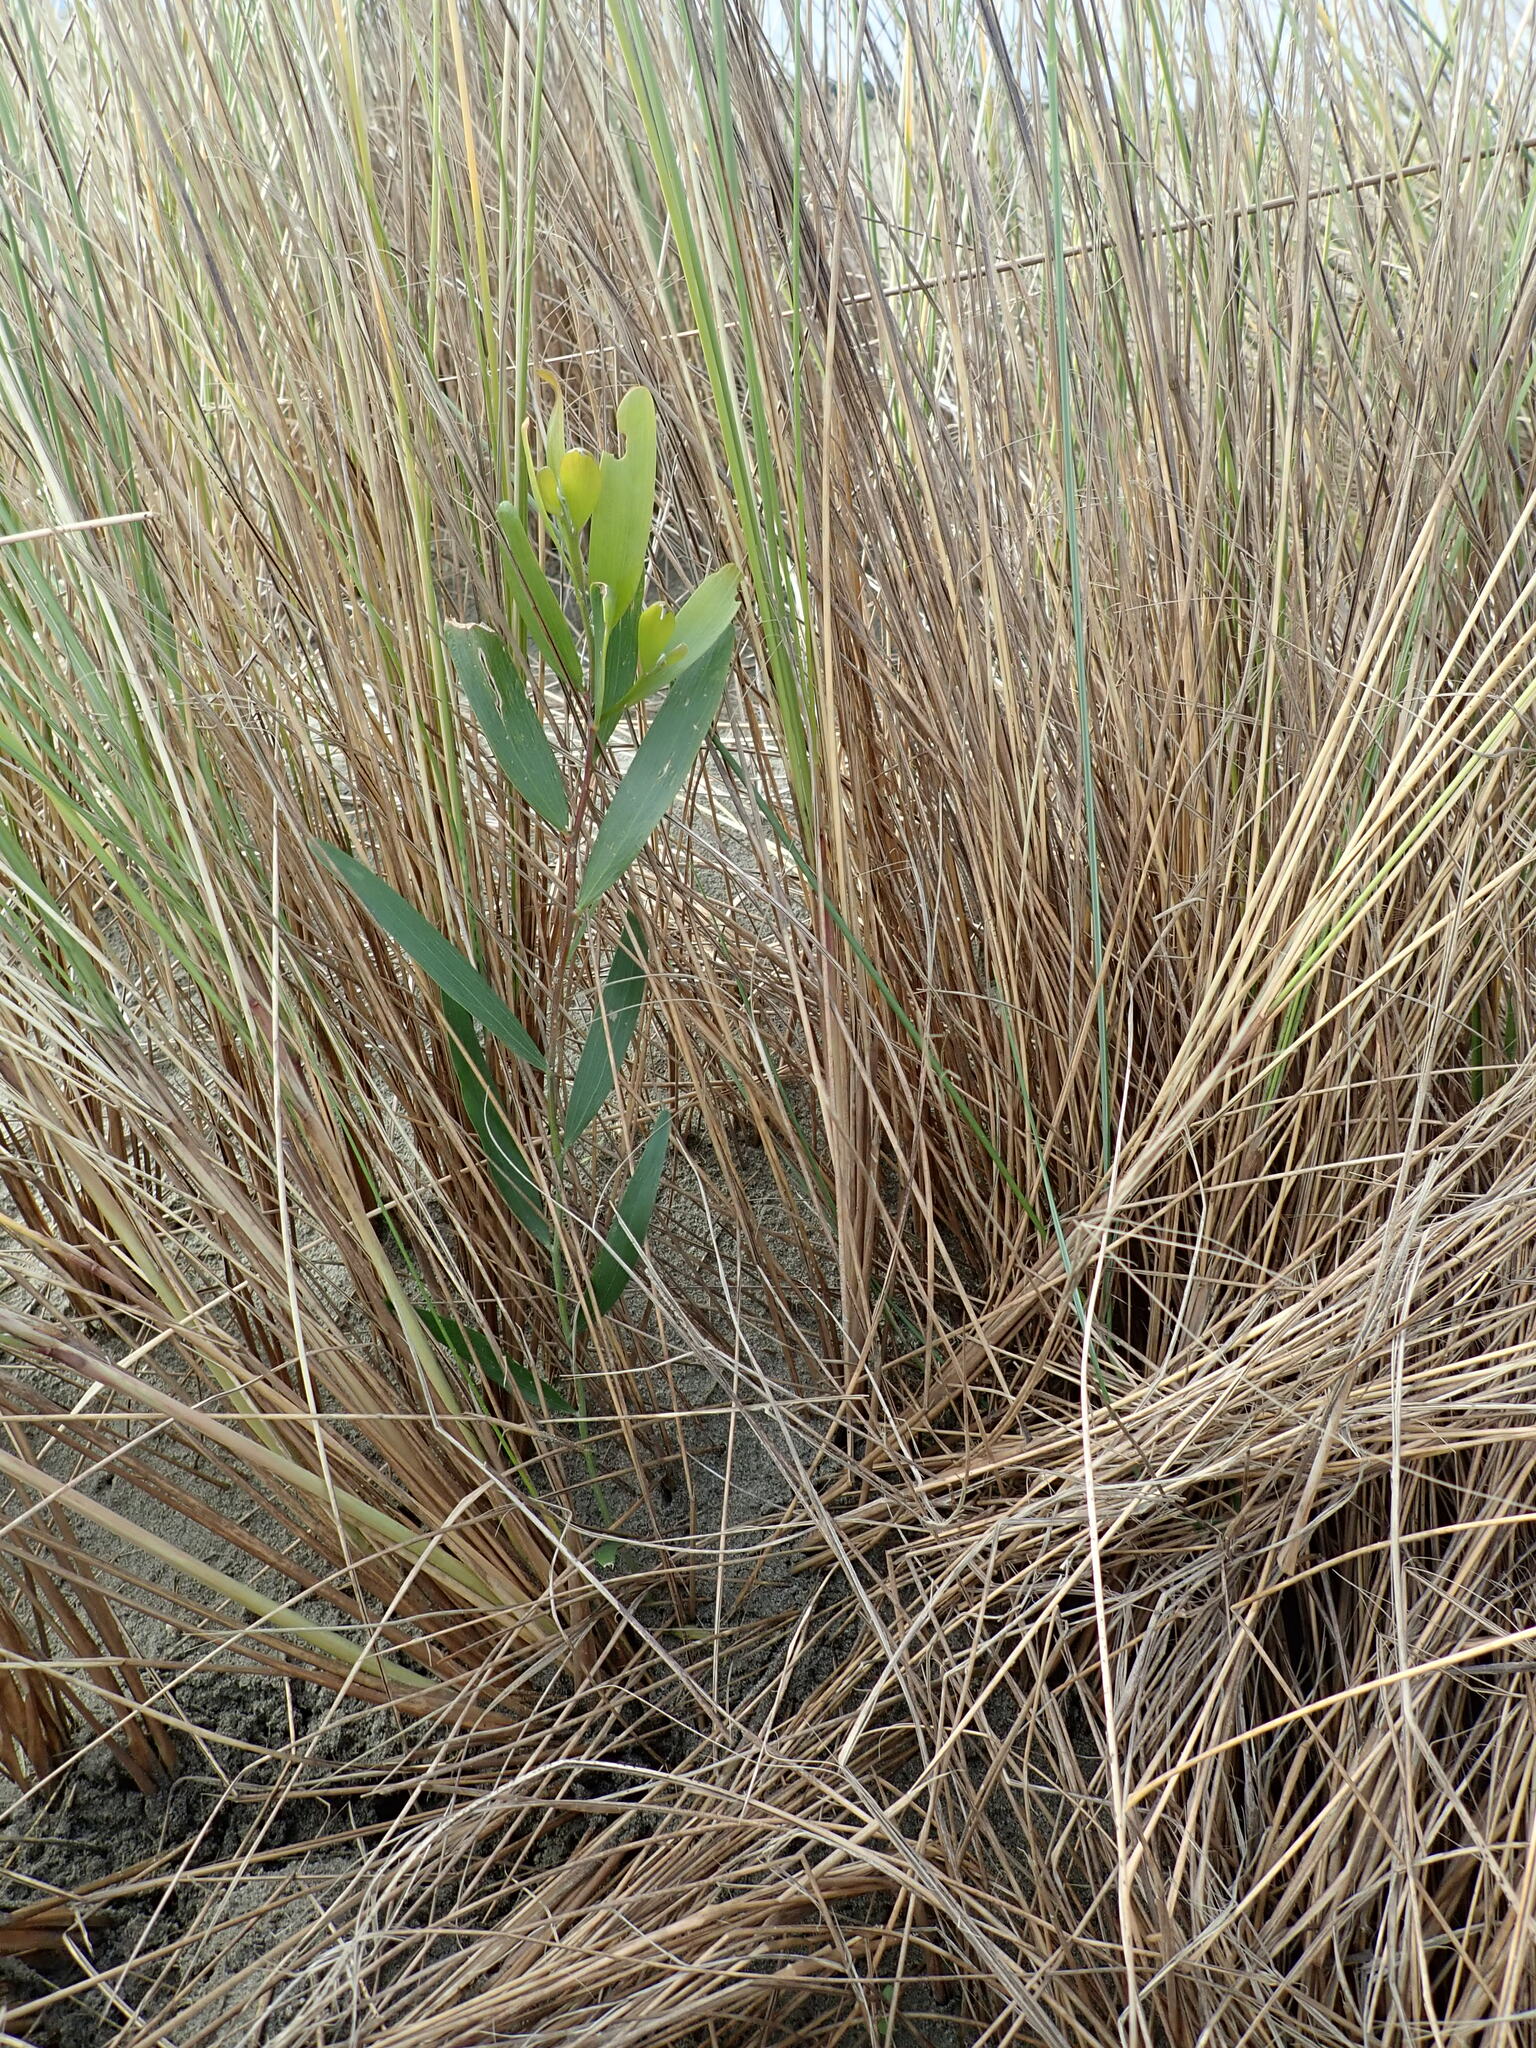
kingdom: Plantae
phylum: Tracheophyta
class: Magnoliopsida
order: Fabales
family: Fabaceae
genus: Acacia
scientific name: Acacia longifolia
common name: Sydney golden wattle
